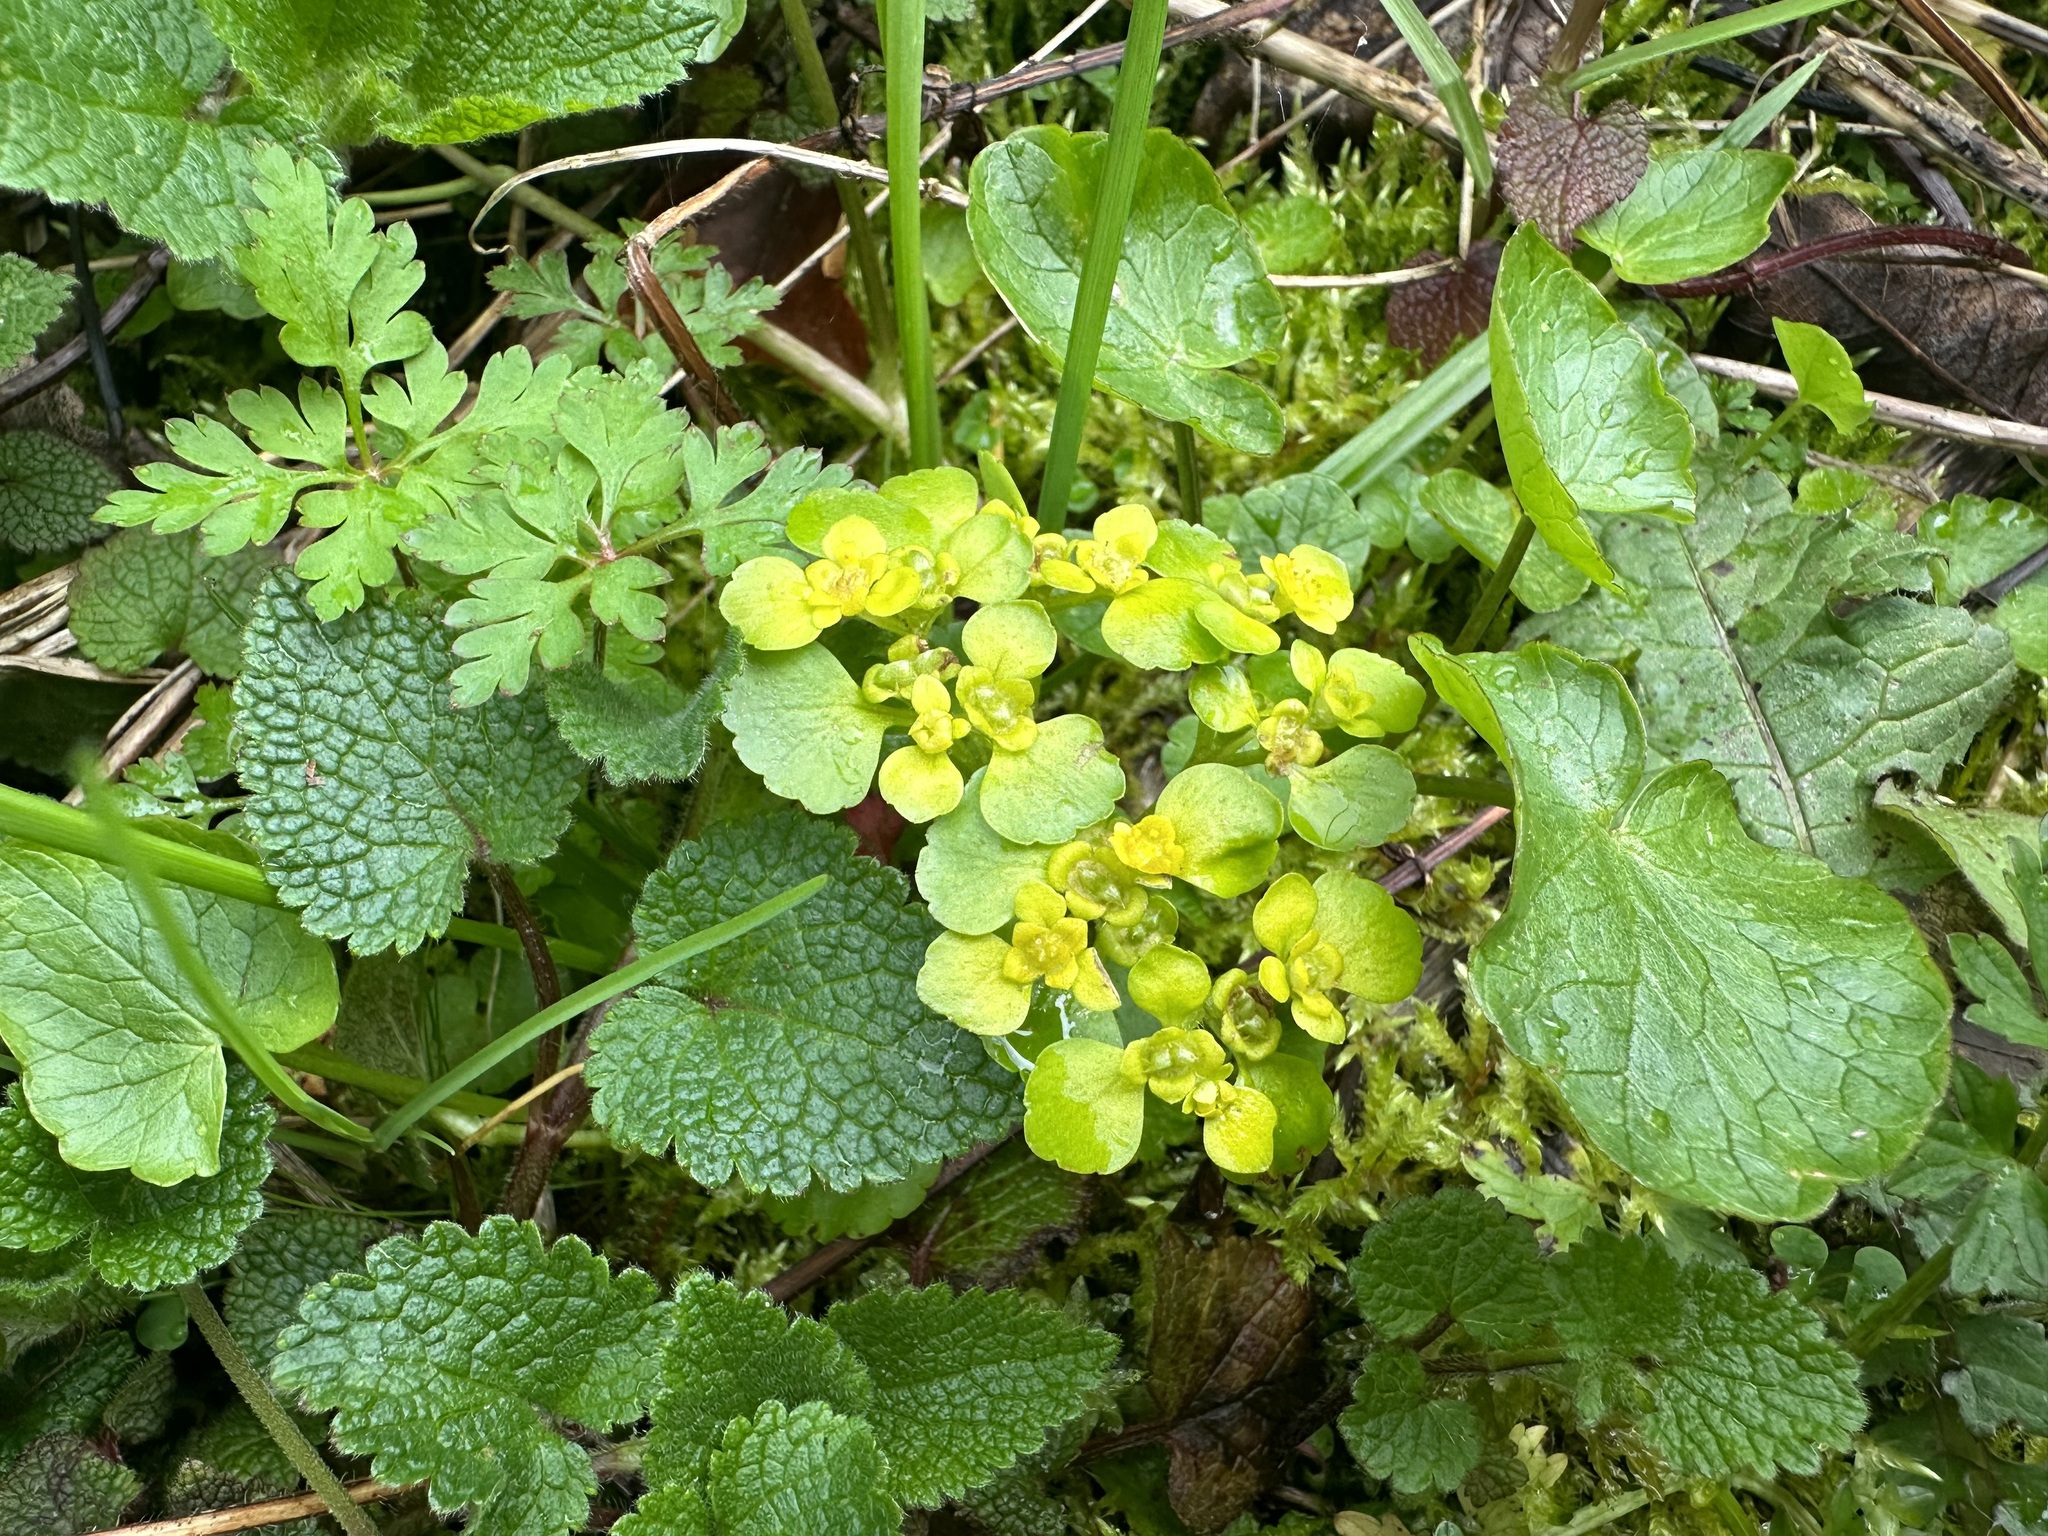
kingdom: Plantae
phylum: Tracheophyta
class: Magnoliopsida
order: Saxifragales
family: Saxifragaceae
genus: Chrysosplenium
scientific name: Chrysosplenium alternifolium
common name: Alternate-leaved golden-saxifrage
